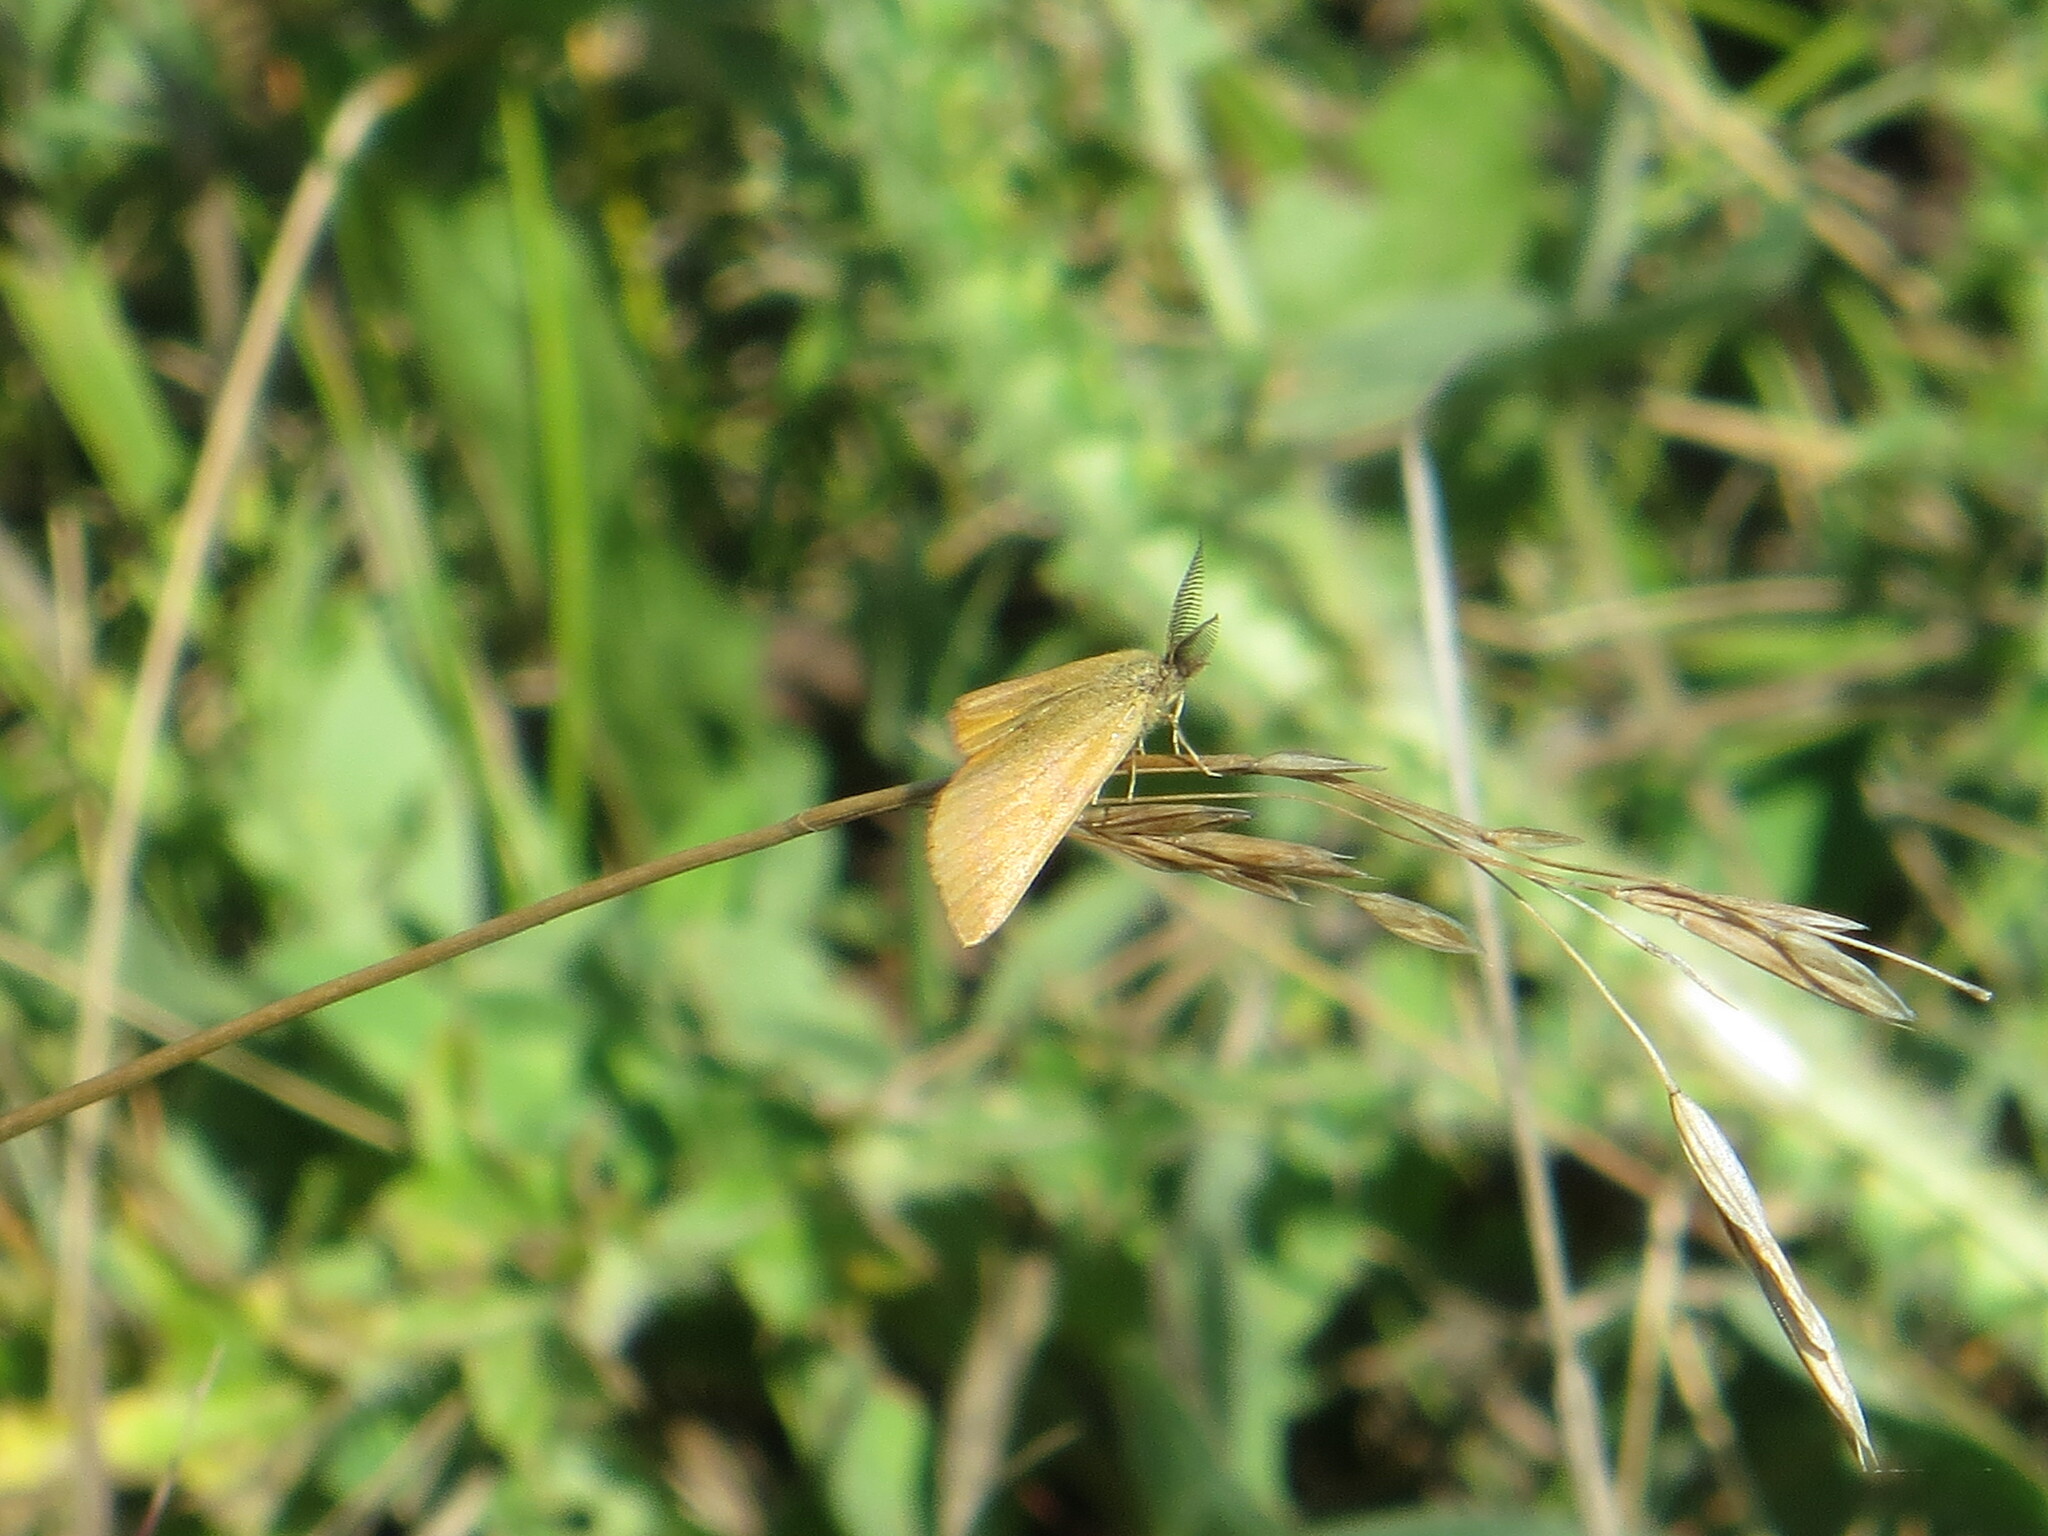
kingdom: Animalia
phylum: Arthropoda
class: Insecta
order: Lepidoptera
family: Geometridae
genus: Lythria
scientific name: Lythria purpuraria
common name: Purple-barred yellow
